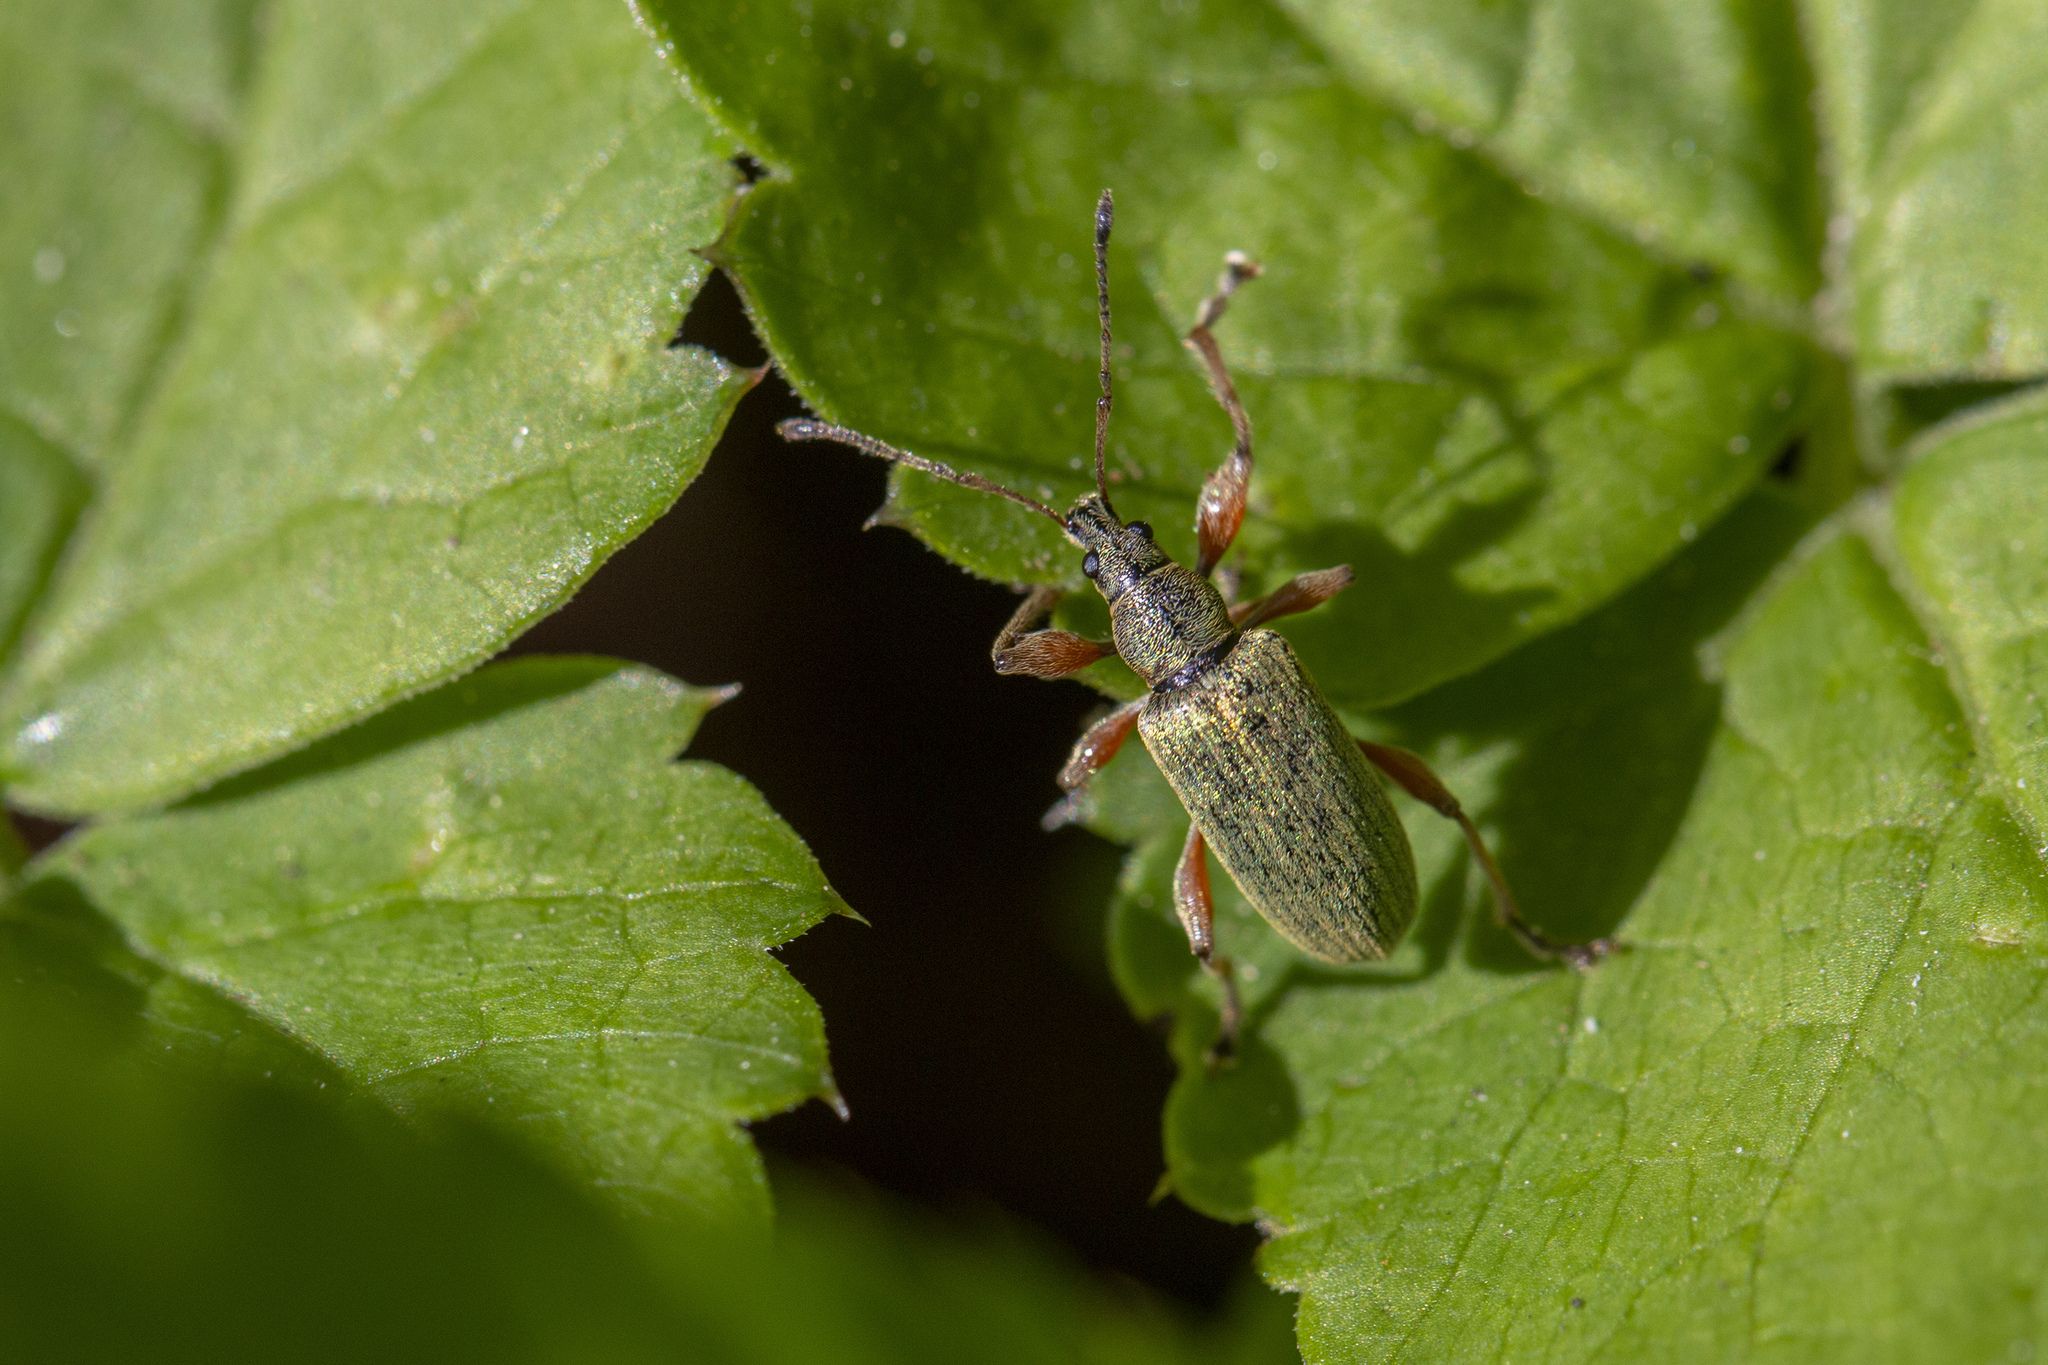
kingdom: Animalia
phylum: Arthropoda
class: Insecta
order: Coleoptera
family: Curculionidae
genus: Phyllobius
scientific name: Phyllobius glaucus
